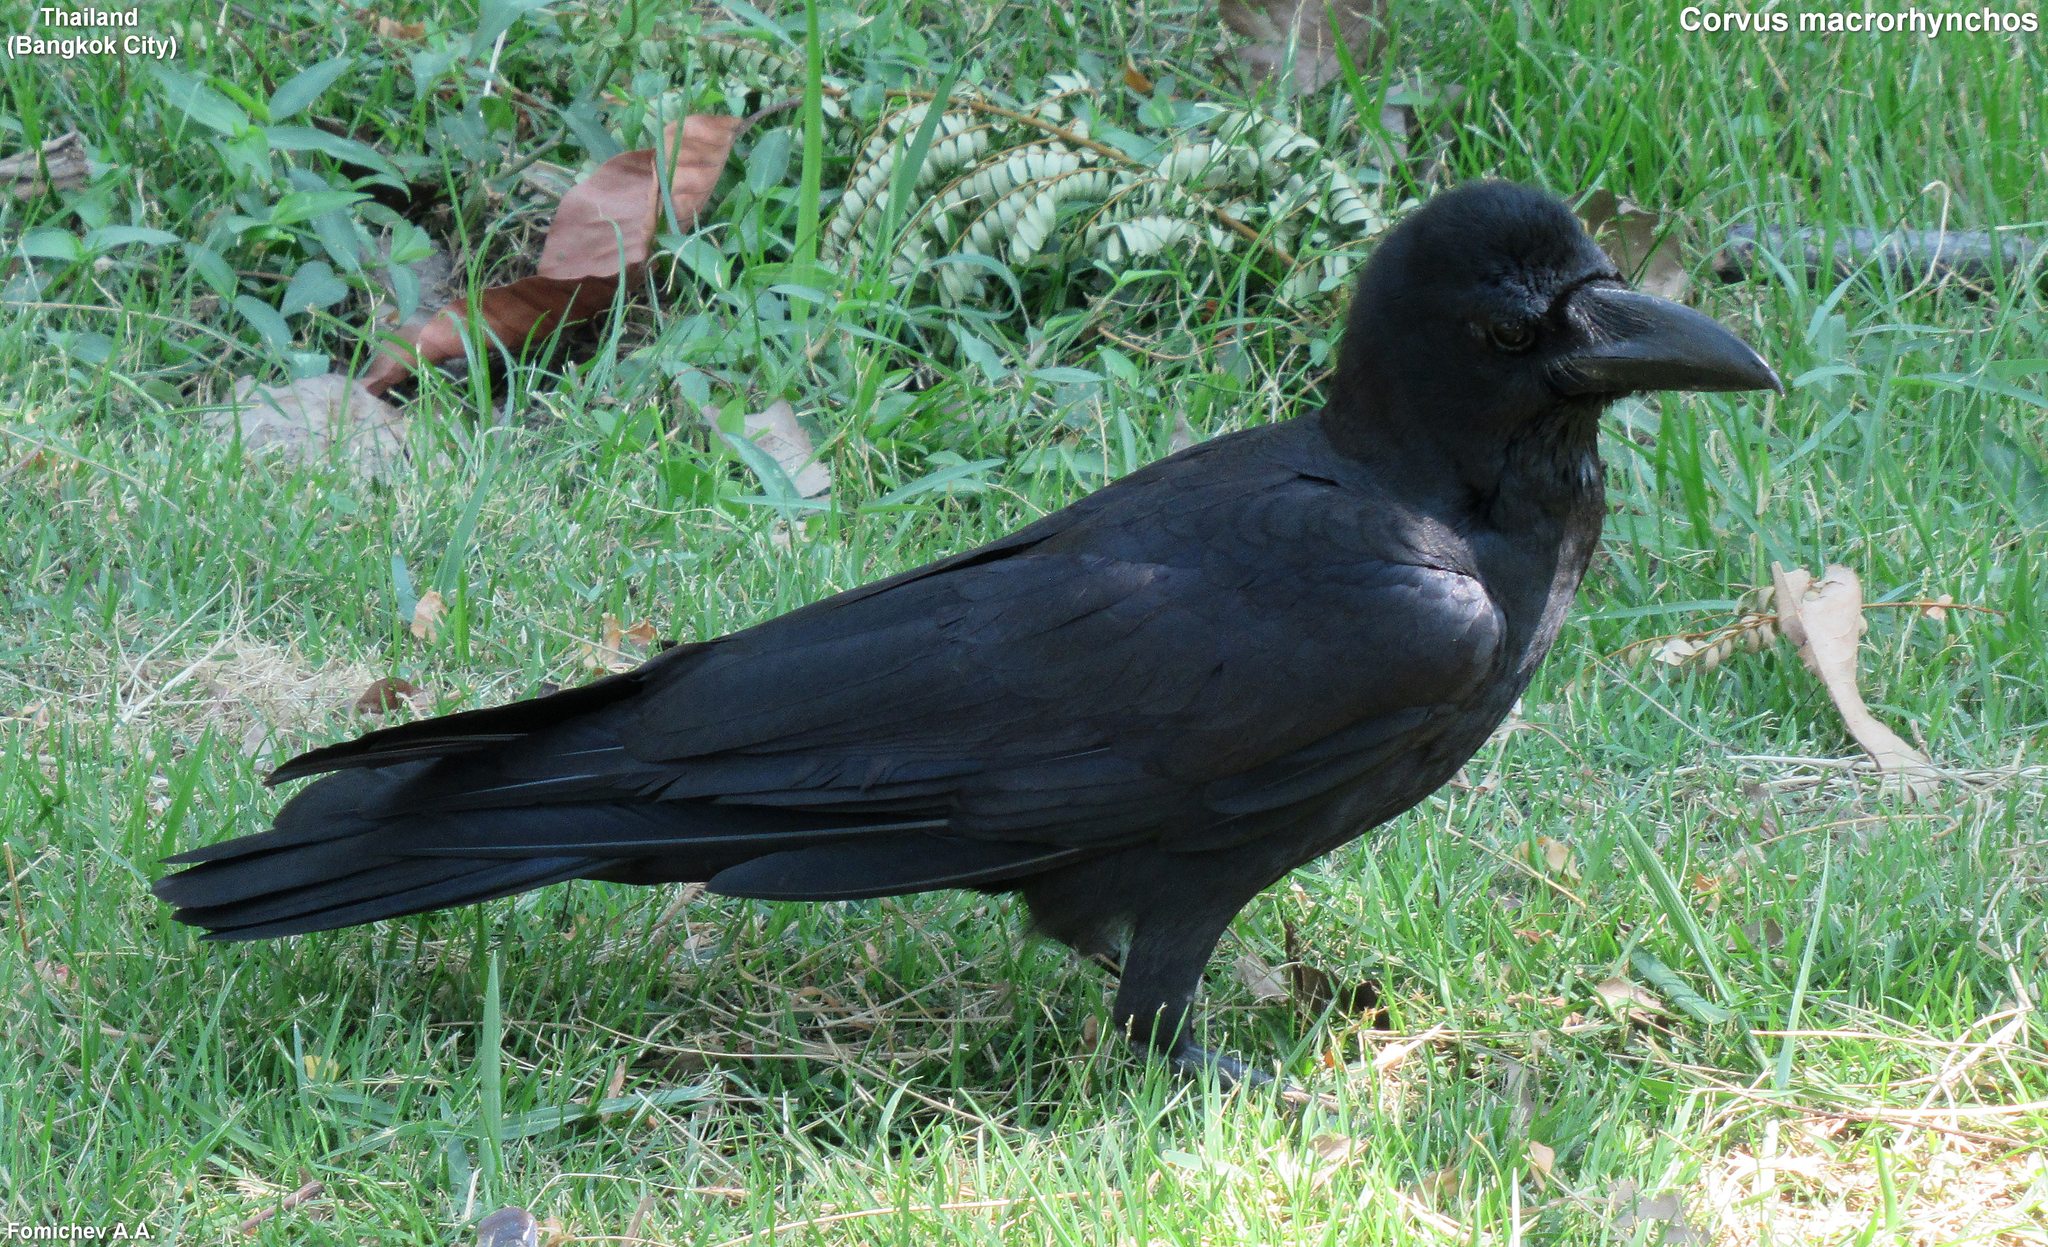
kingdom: Animalia
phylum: Chordata
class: Aves
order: Passeriformes
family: Corvidae
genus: Corvus
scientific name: Corvus macrorhynchos
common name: Large-billed crow
